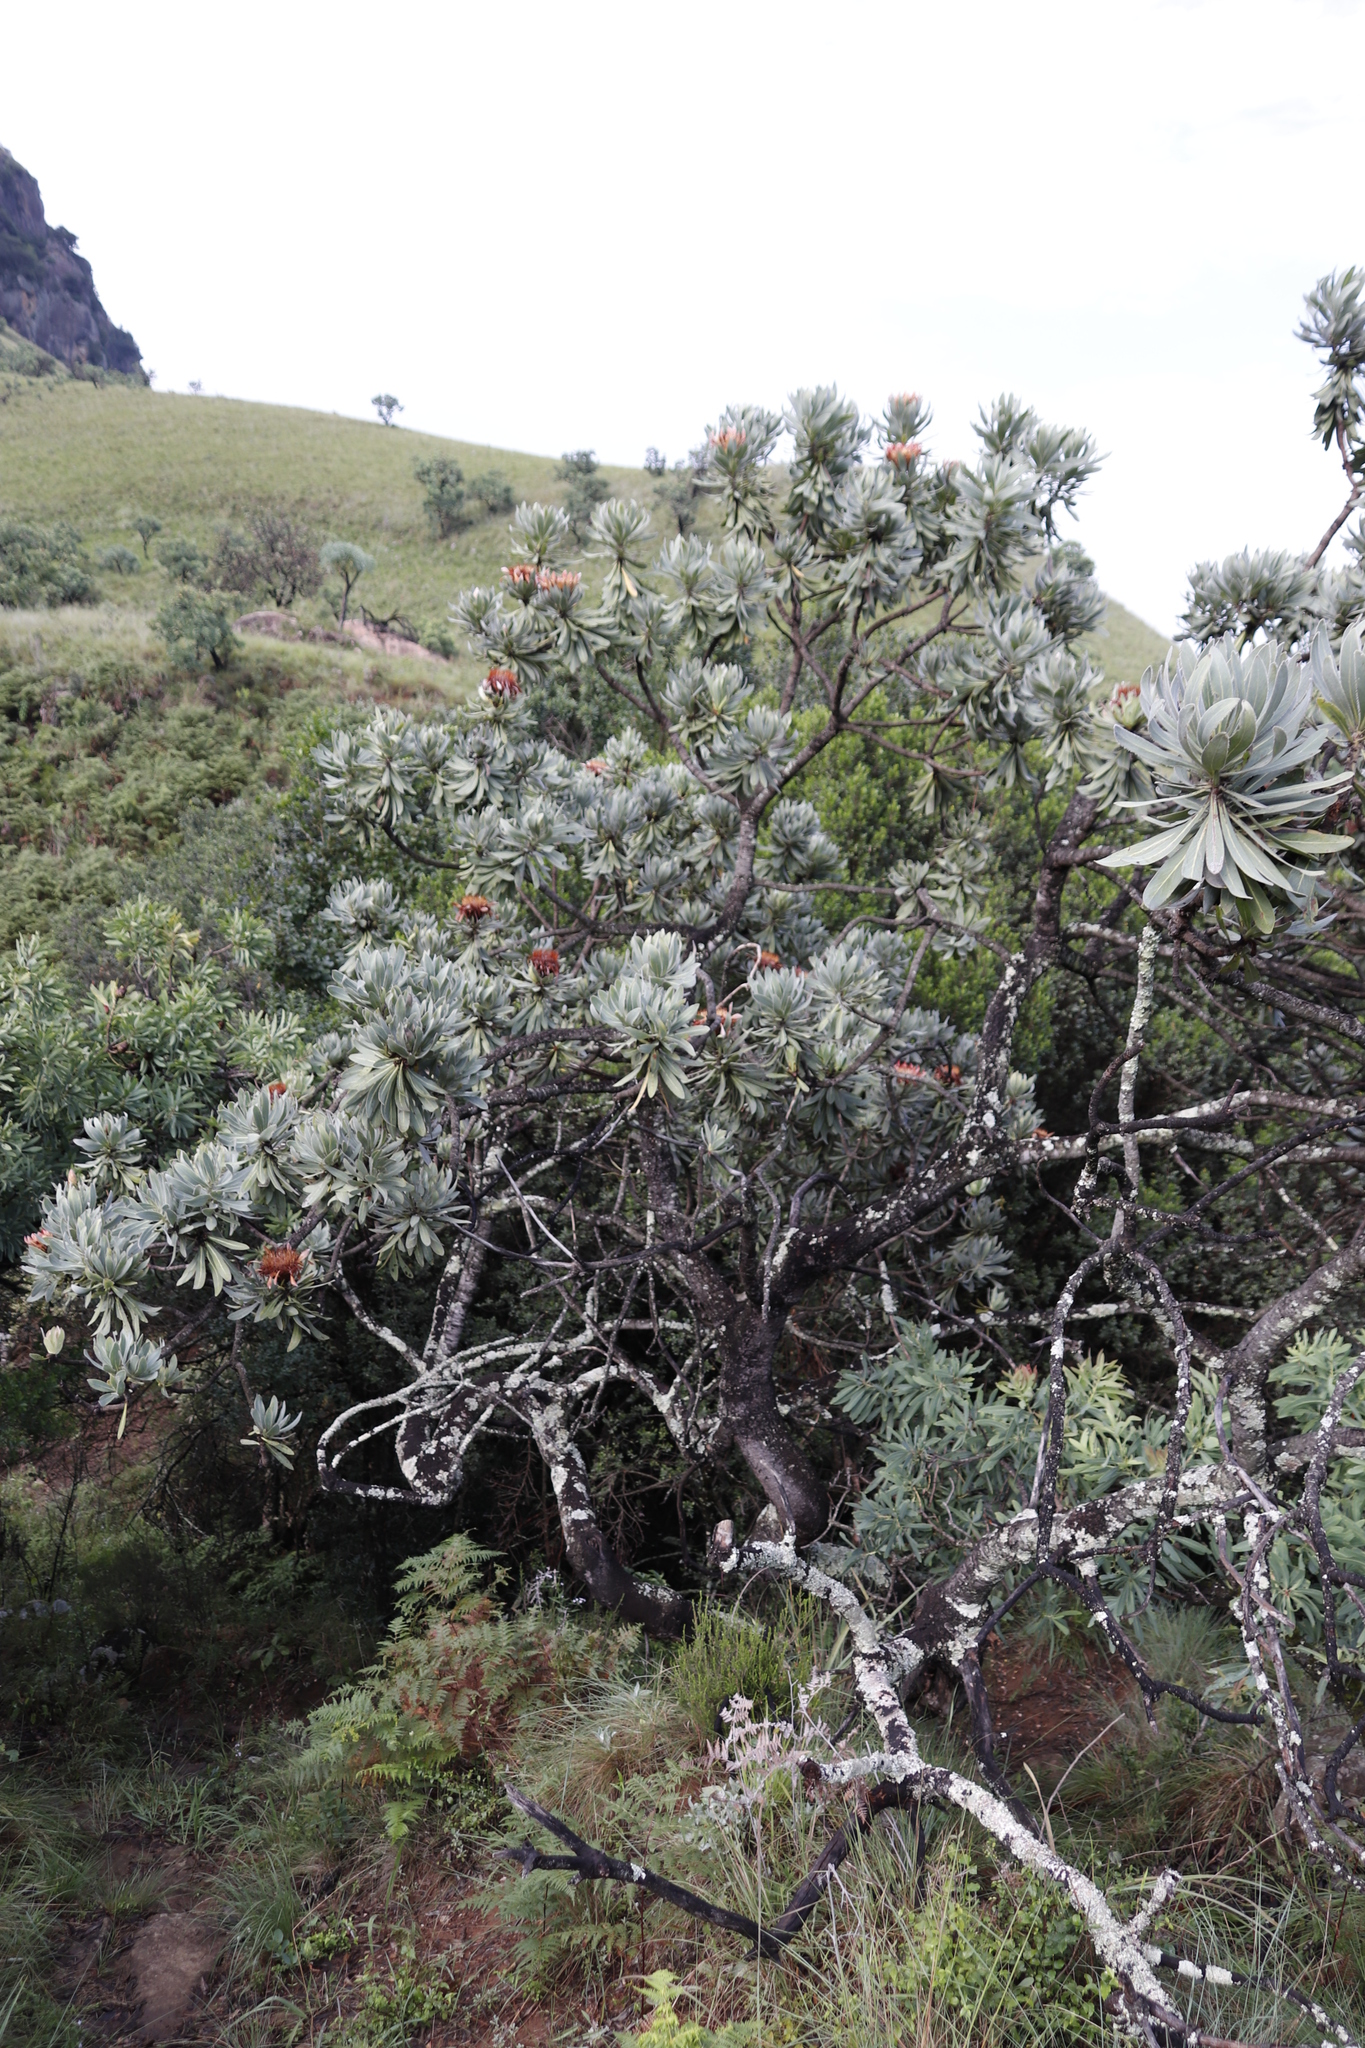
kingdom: Plantae
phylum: Tracheophyta
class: Magnoliopsida
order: Proteales
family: Proteaceae
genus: Protea
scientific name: Protea roupelliae
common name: Silver sugarbush
